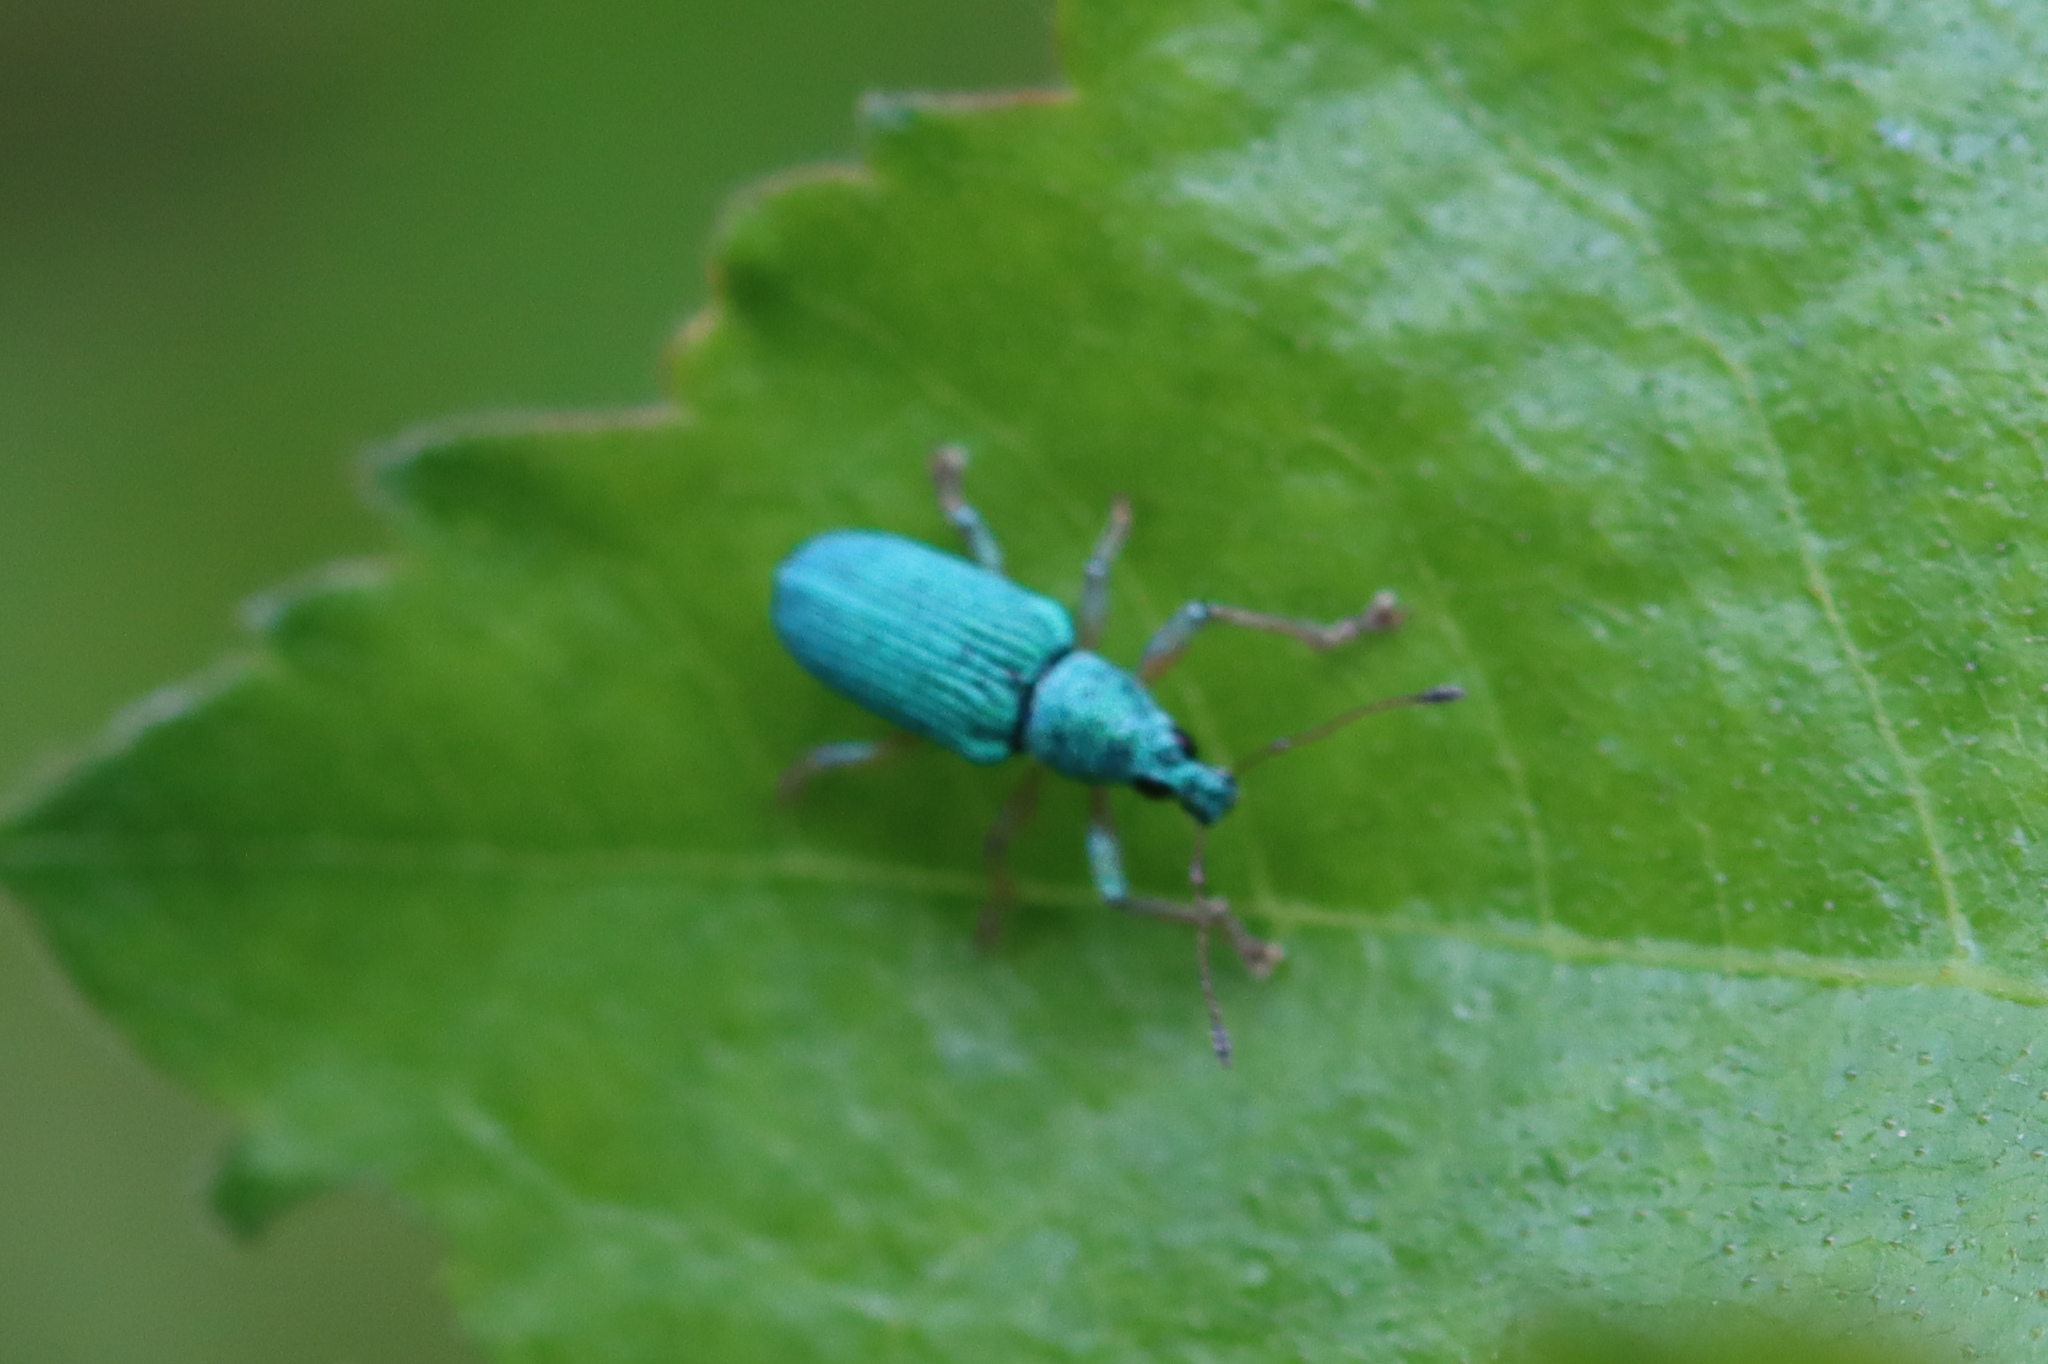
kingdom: Animalia
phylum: Arthropoda
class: Insecta
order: Coleoptera
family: Curculionidae
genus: Polydrusus
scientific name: Polydrusus formosus
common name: Weevil
